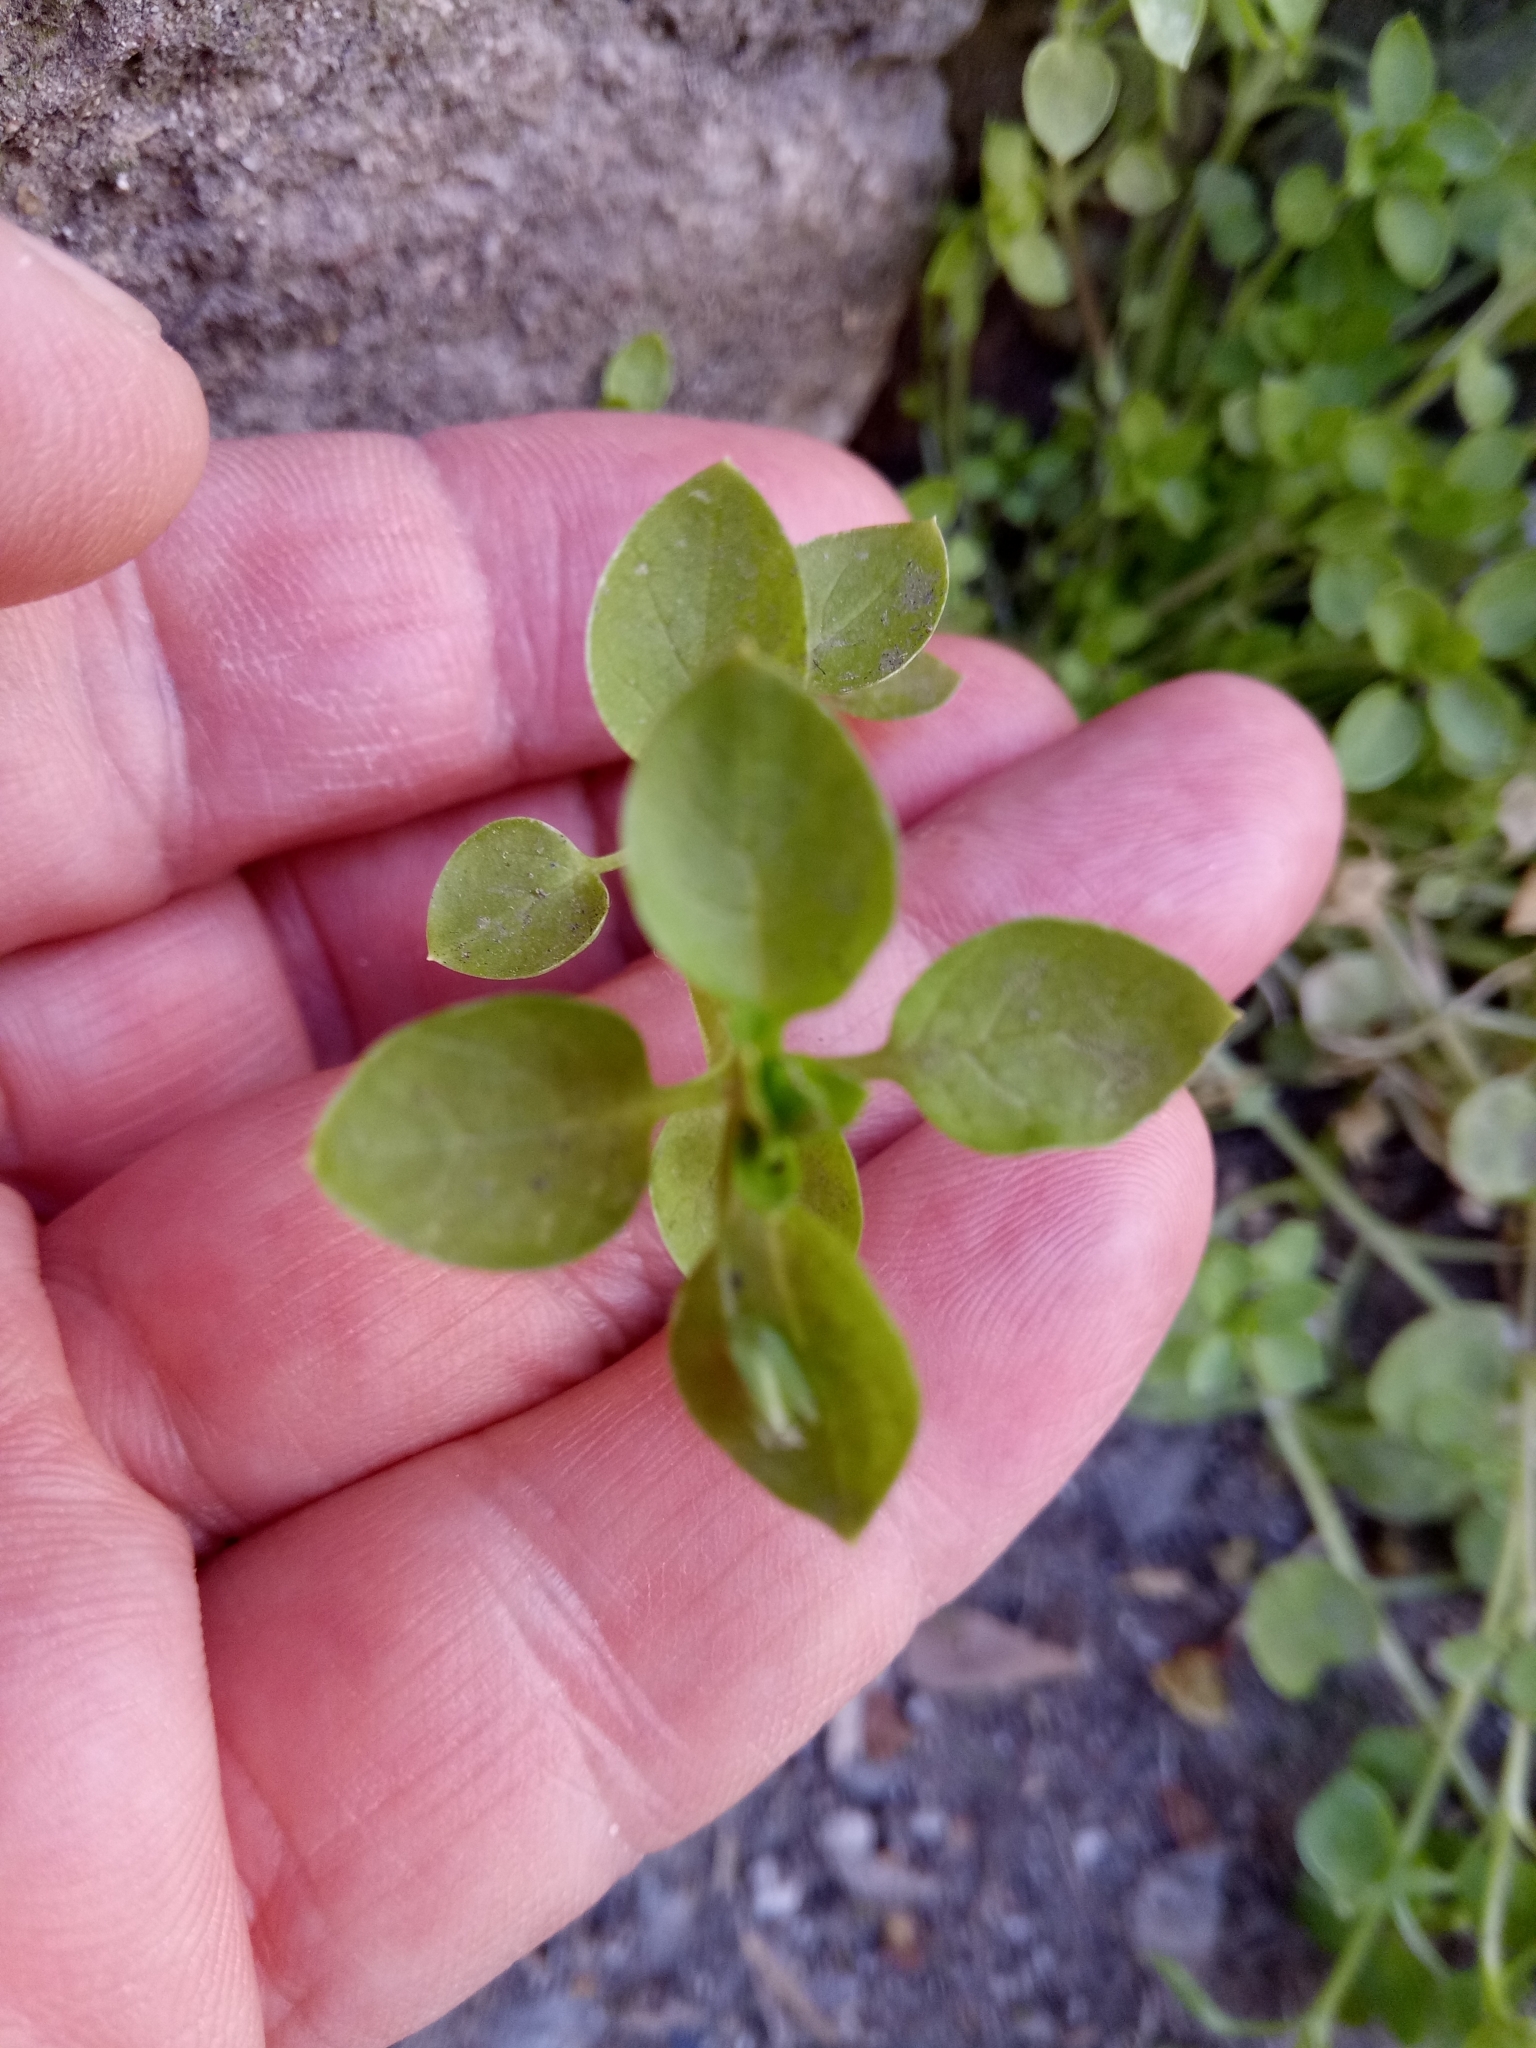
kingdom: Plantae
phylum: Tracheophyta
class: Magnoliopsida
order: Caryophyllales
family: Caryophyllaceae
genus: Stellaria
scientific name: Stellaria apetala
